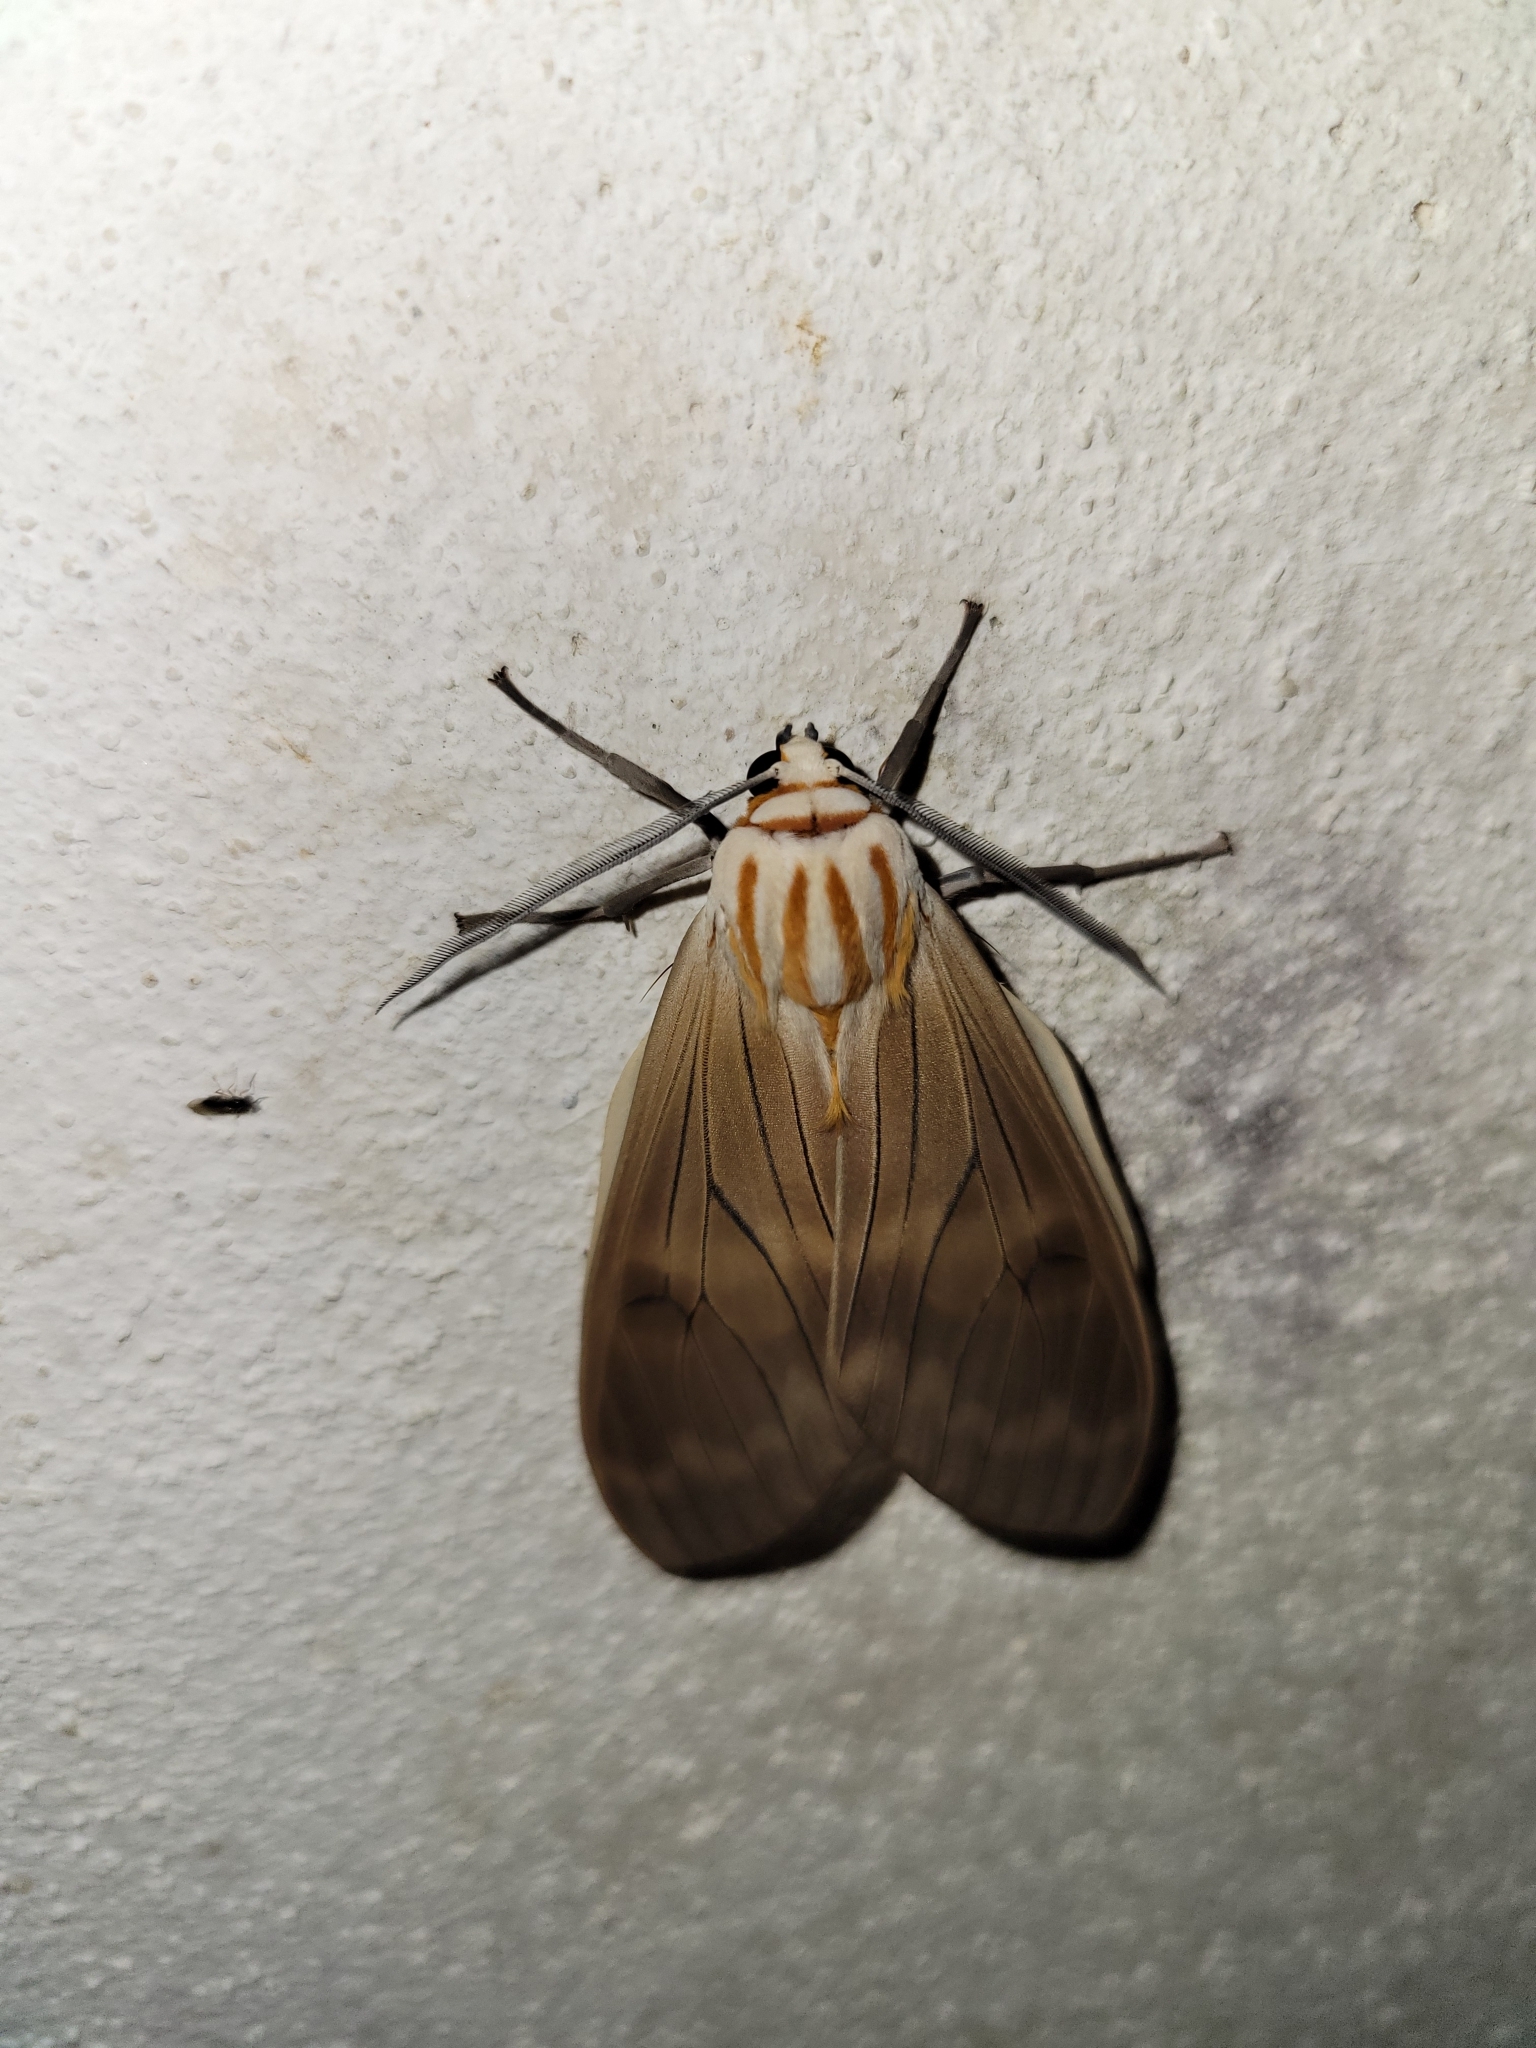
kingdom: Animalia
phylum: Arthropoda
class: Insecta
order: Lepidoptera
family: Erebidae
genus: Amastus
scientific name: Amastus aconia
